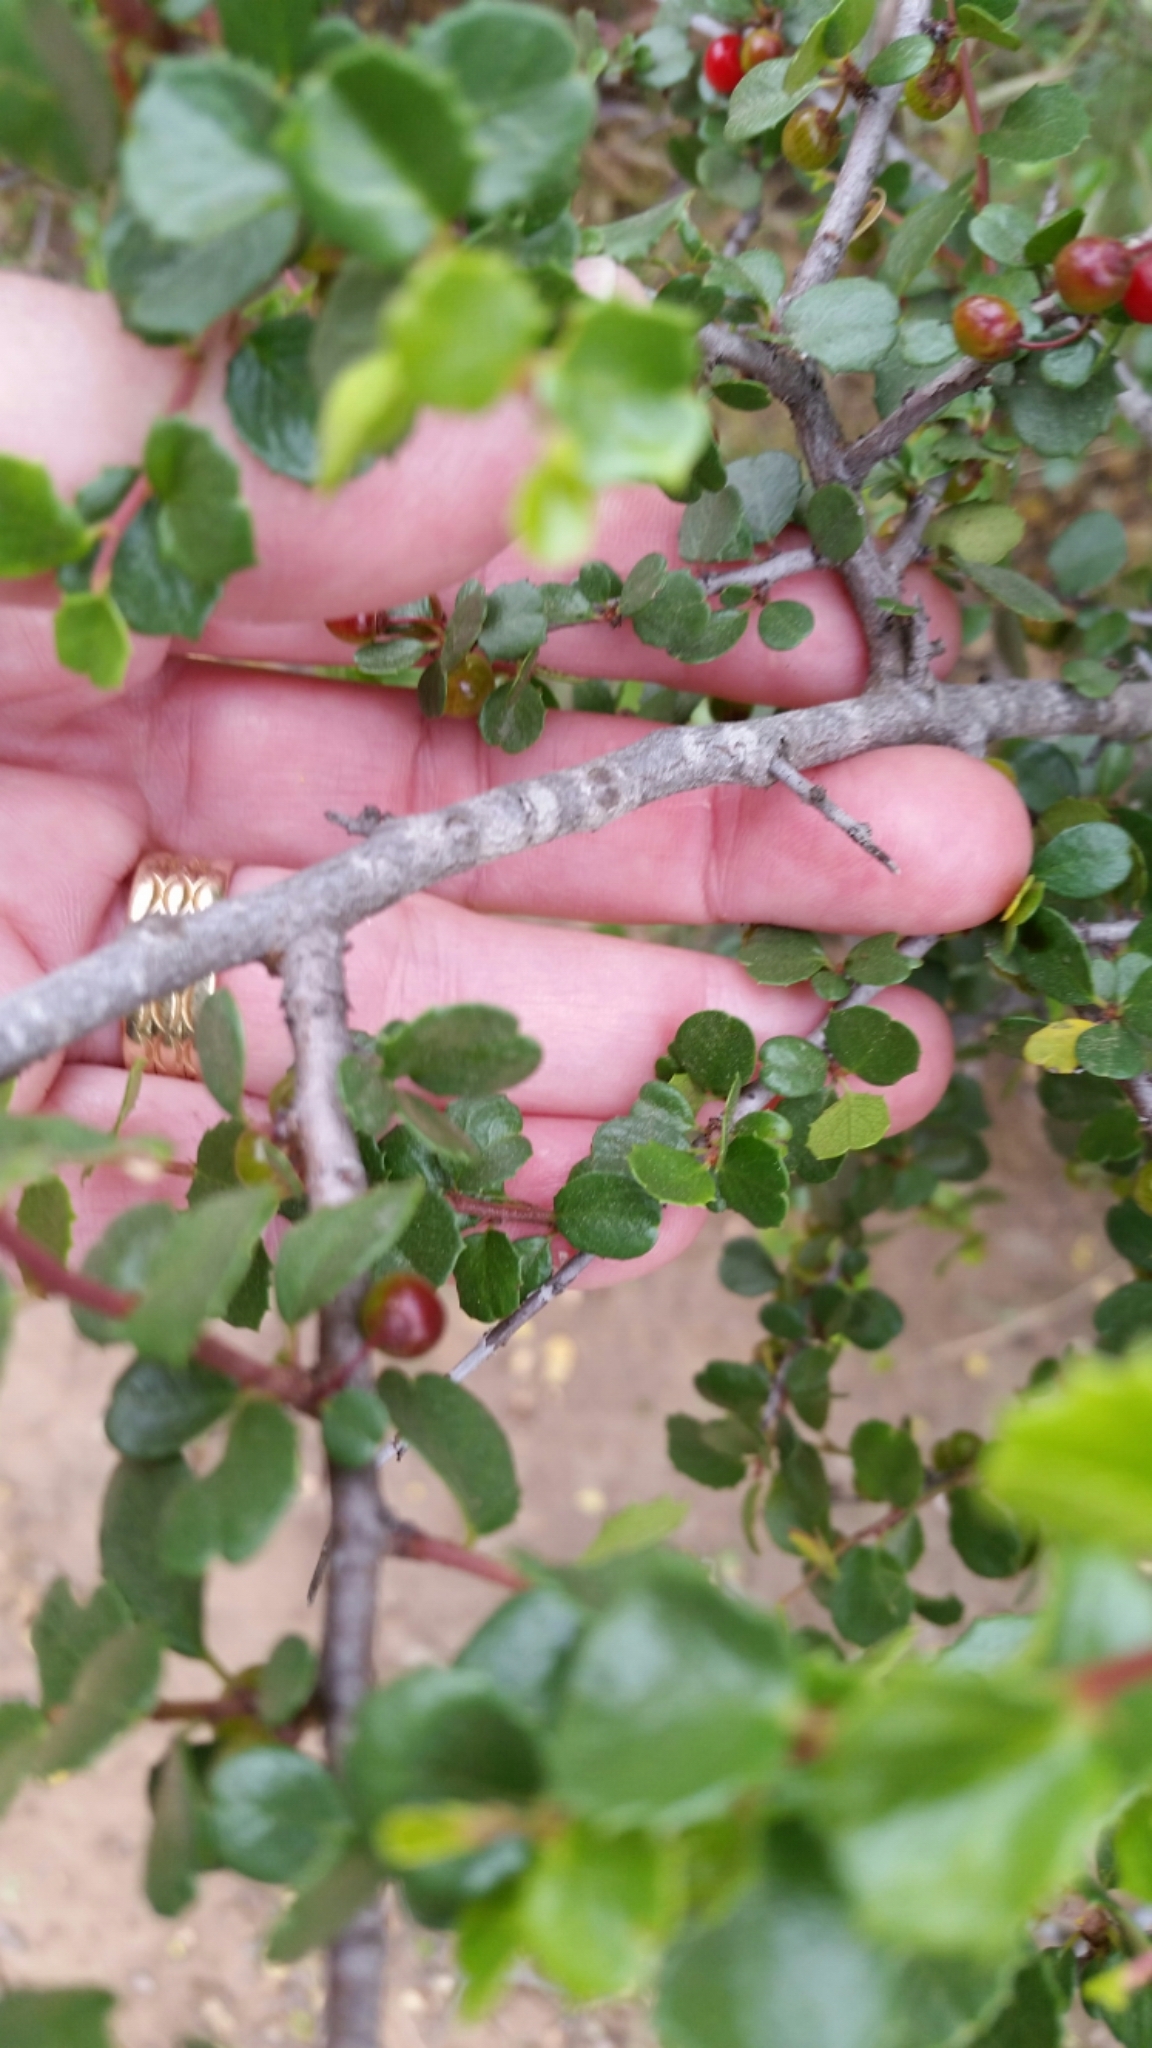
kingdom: Plantae
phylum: Tracheophyta
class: Magnoliopsida
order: Rosales
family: Rhamnaceae
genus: Endotropis
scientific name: Endotropis crocea
